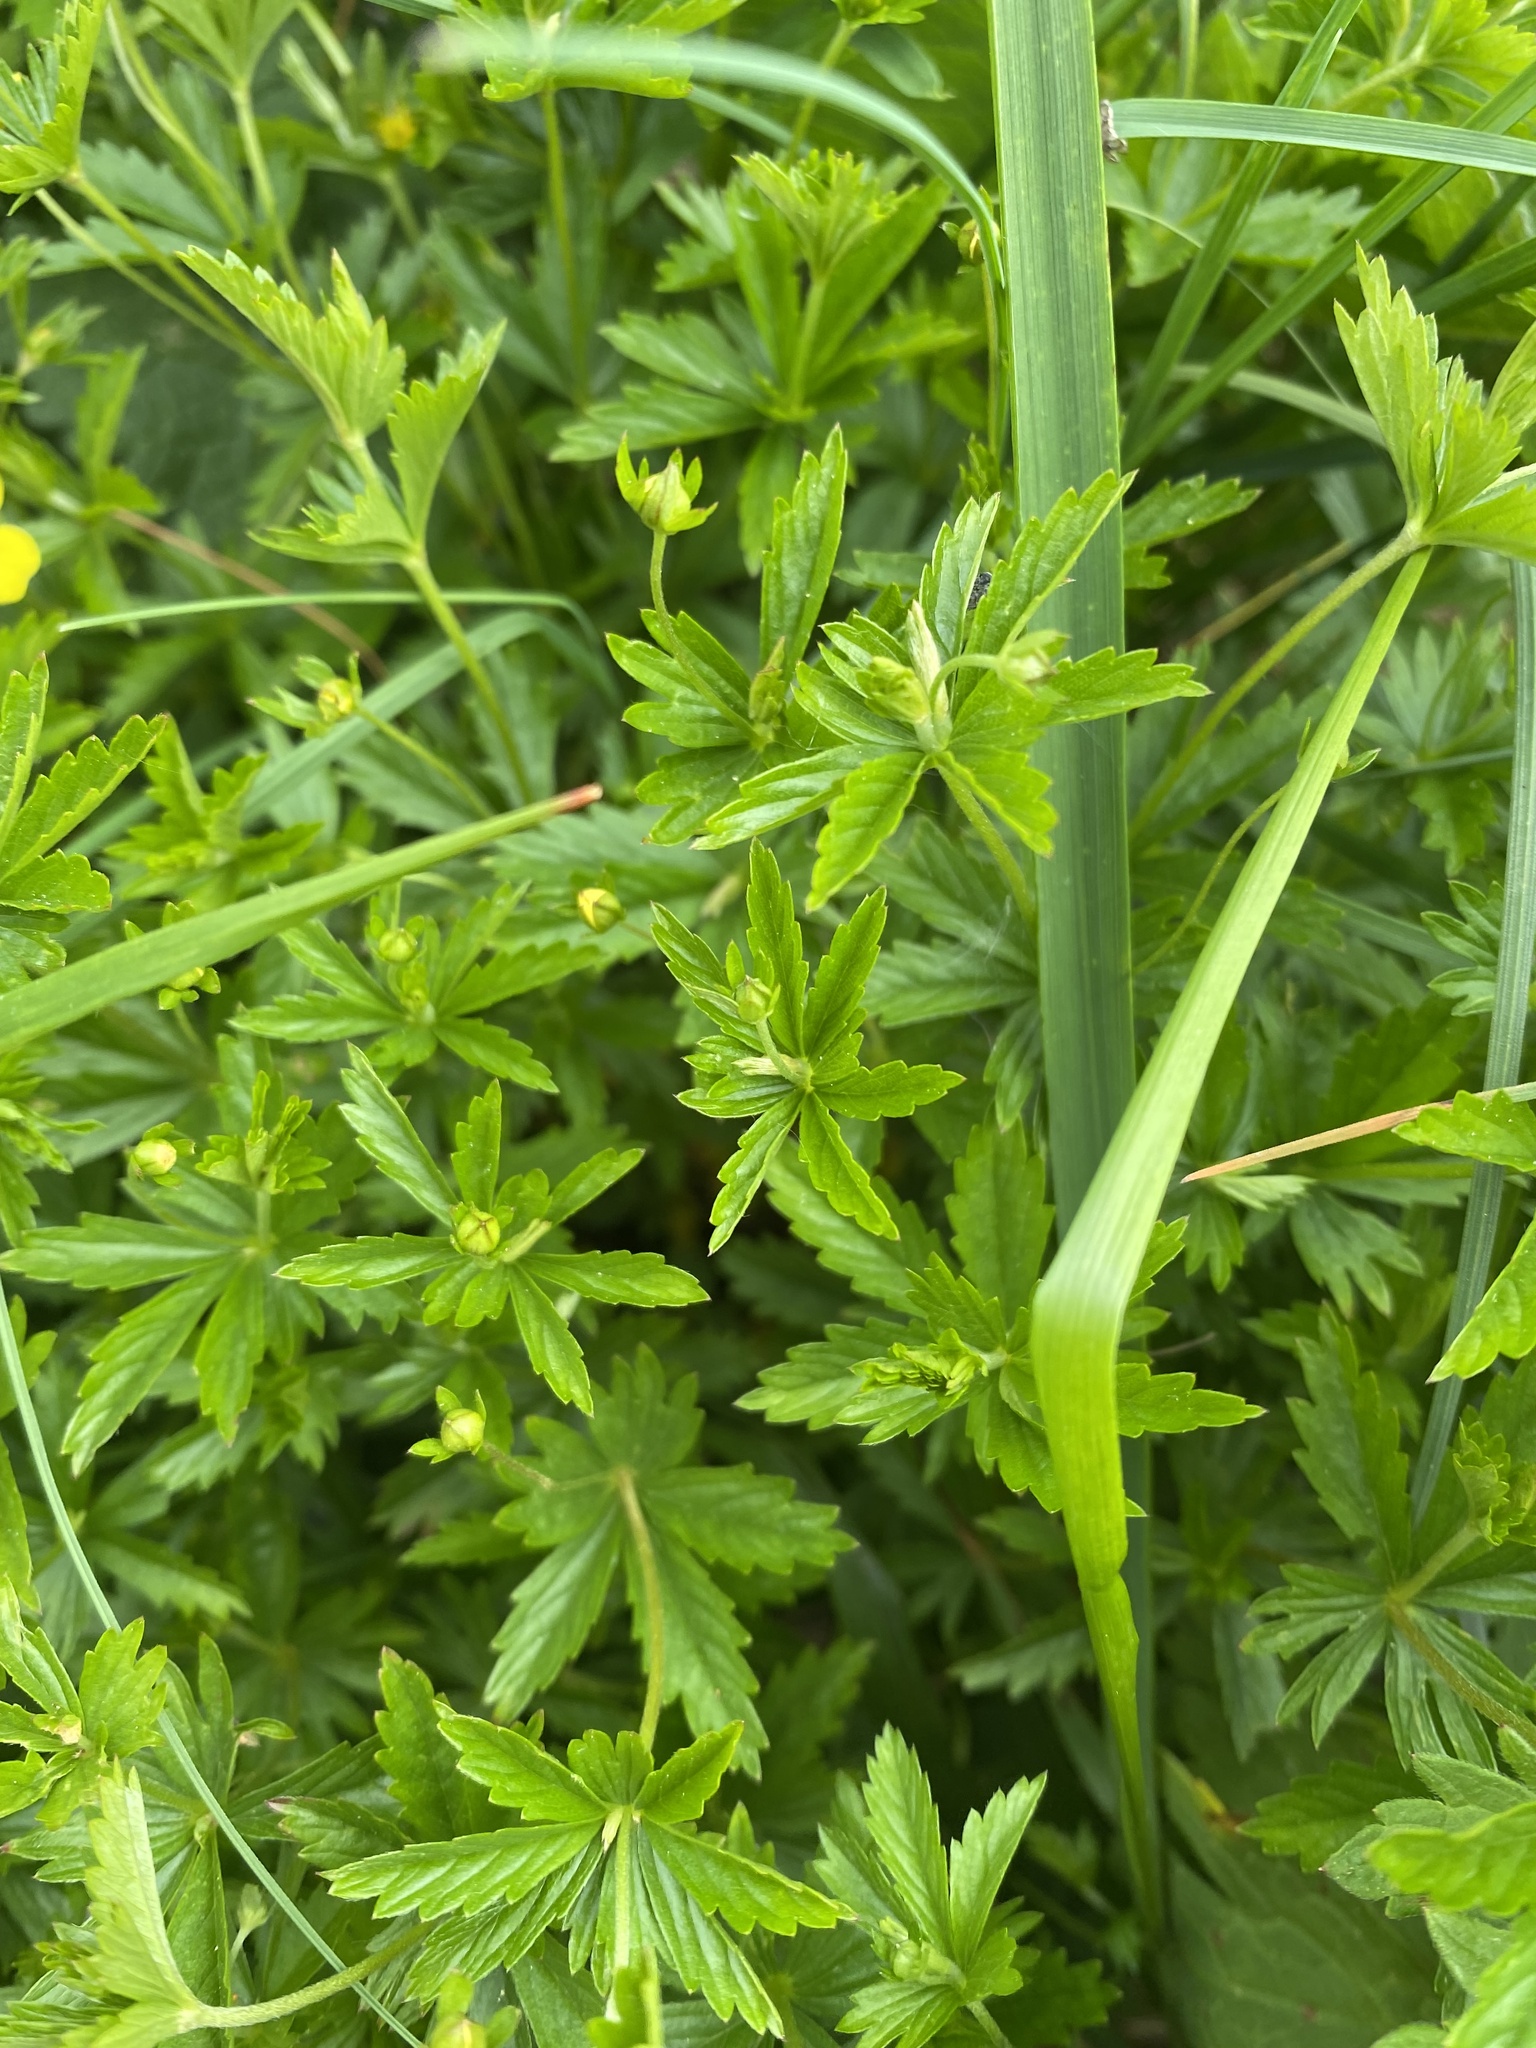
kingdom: Plantae
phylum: Tracheophyta
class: Magnoliopsida
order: Rosales
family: Rosaceae
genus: Potentilla
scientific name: Potentilla erecta
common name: Tormentil
